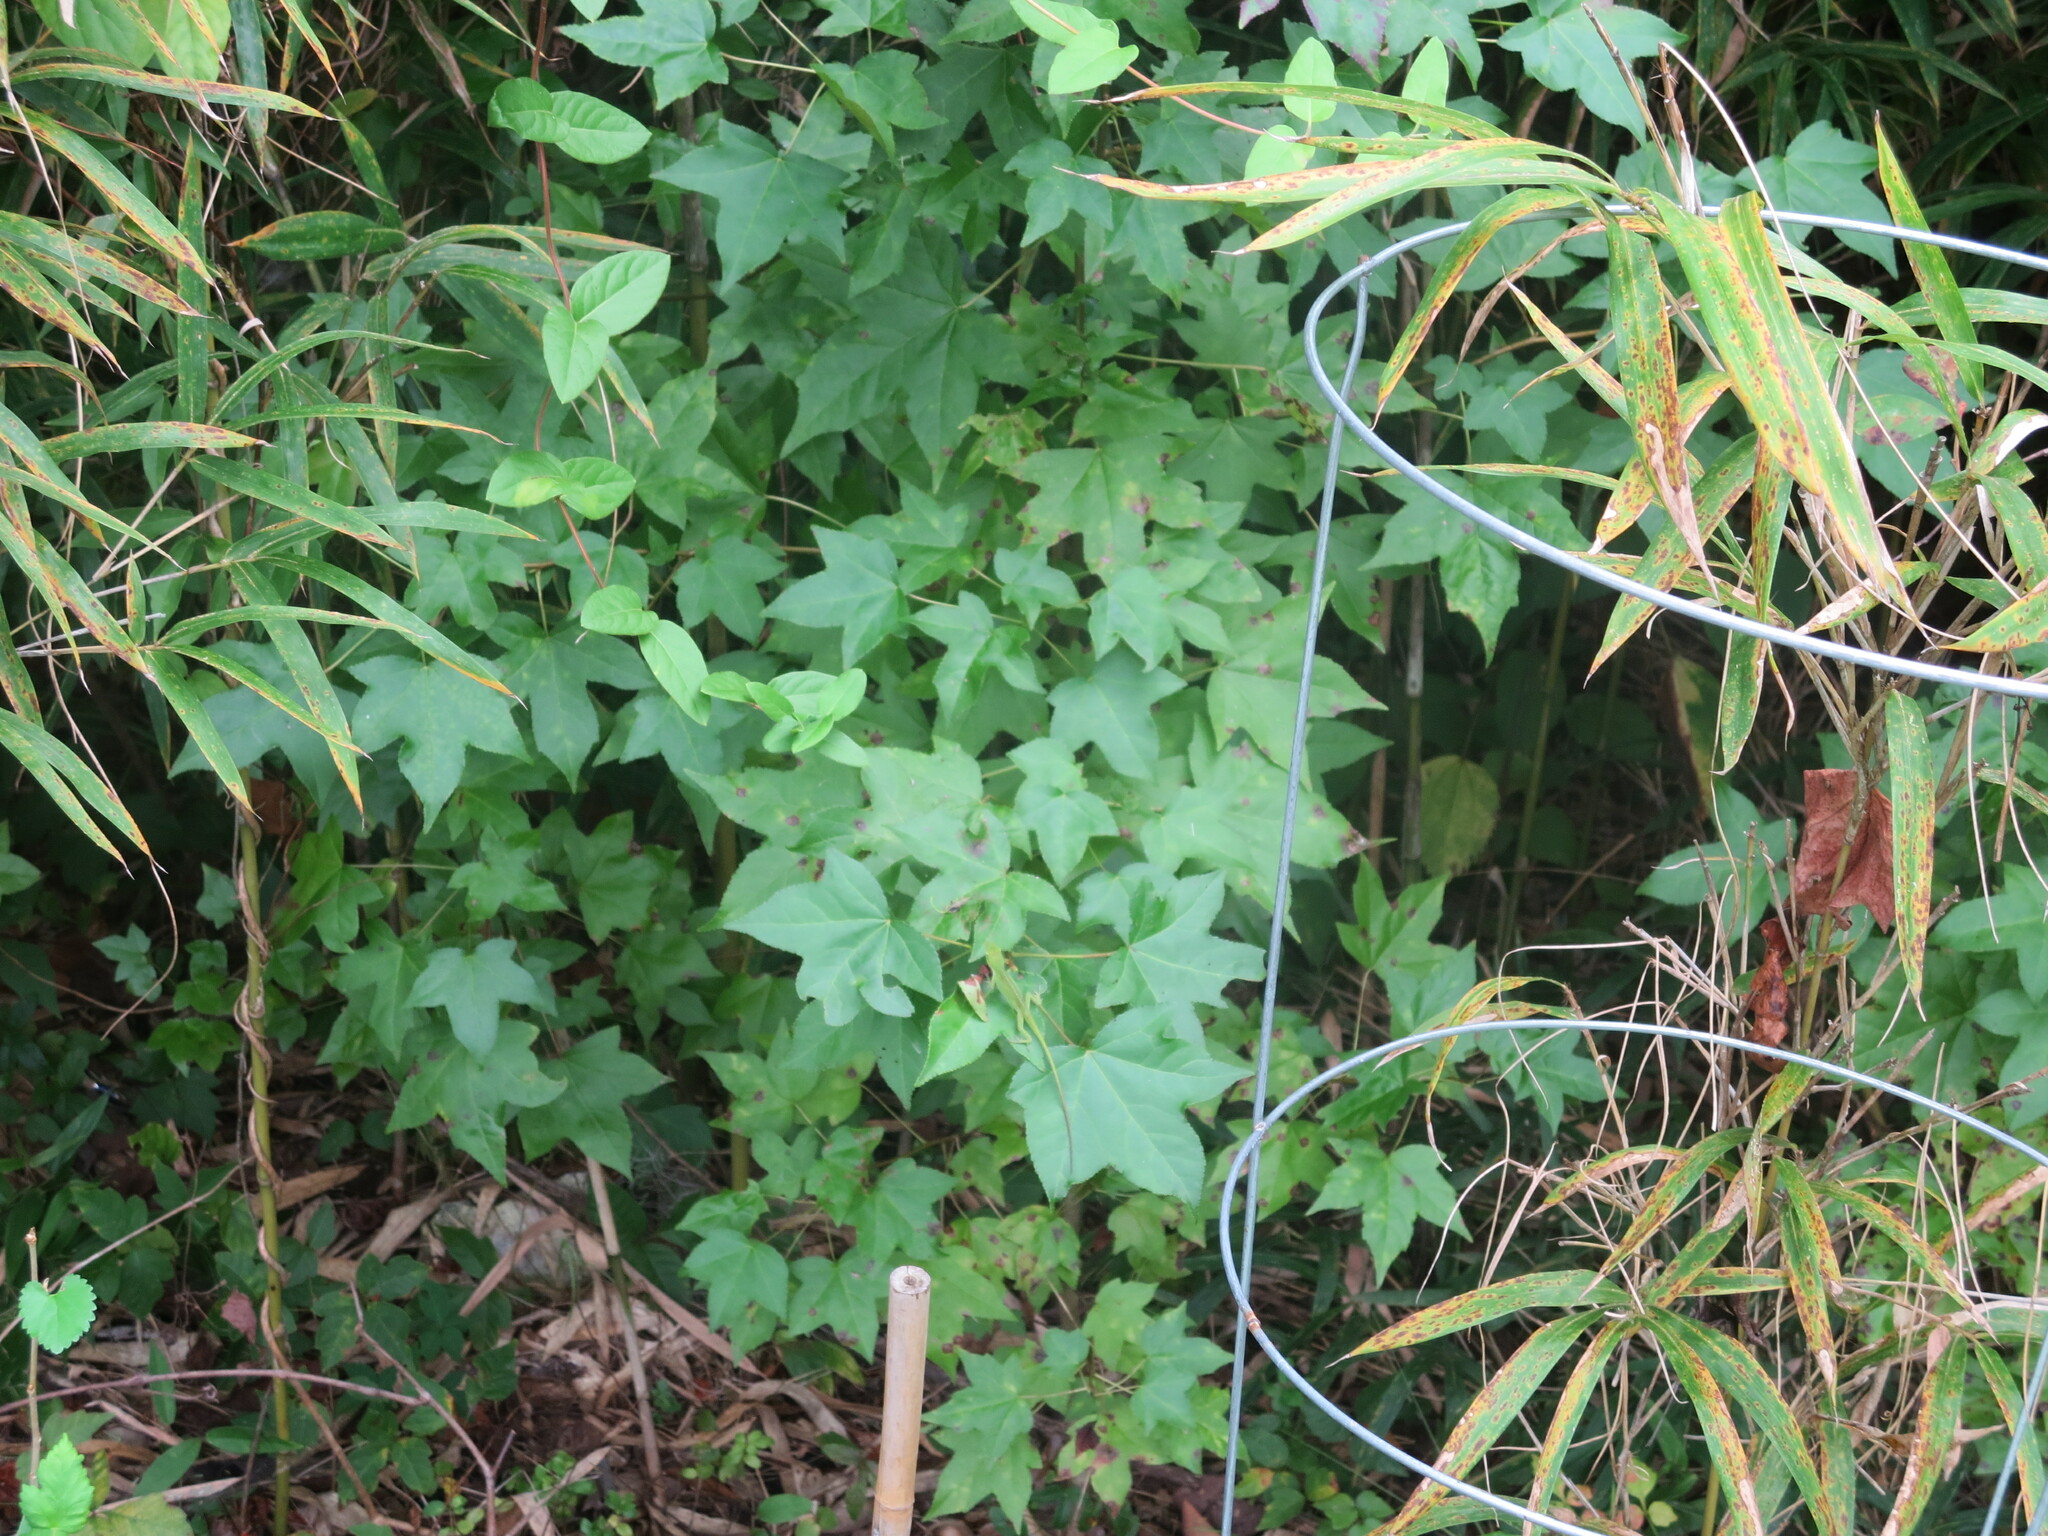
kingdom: Animalia
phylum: Chordata
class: Squamata
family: Dactyloidae
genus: Anolis
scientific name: Anolis carolinensis
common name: Green anole
